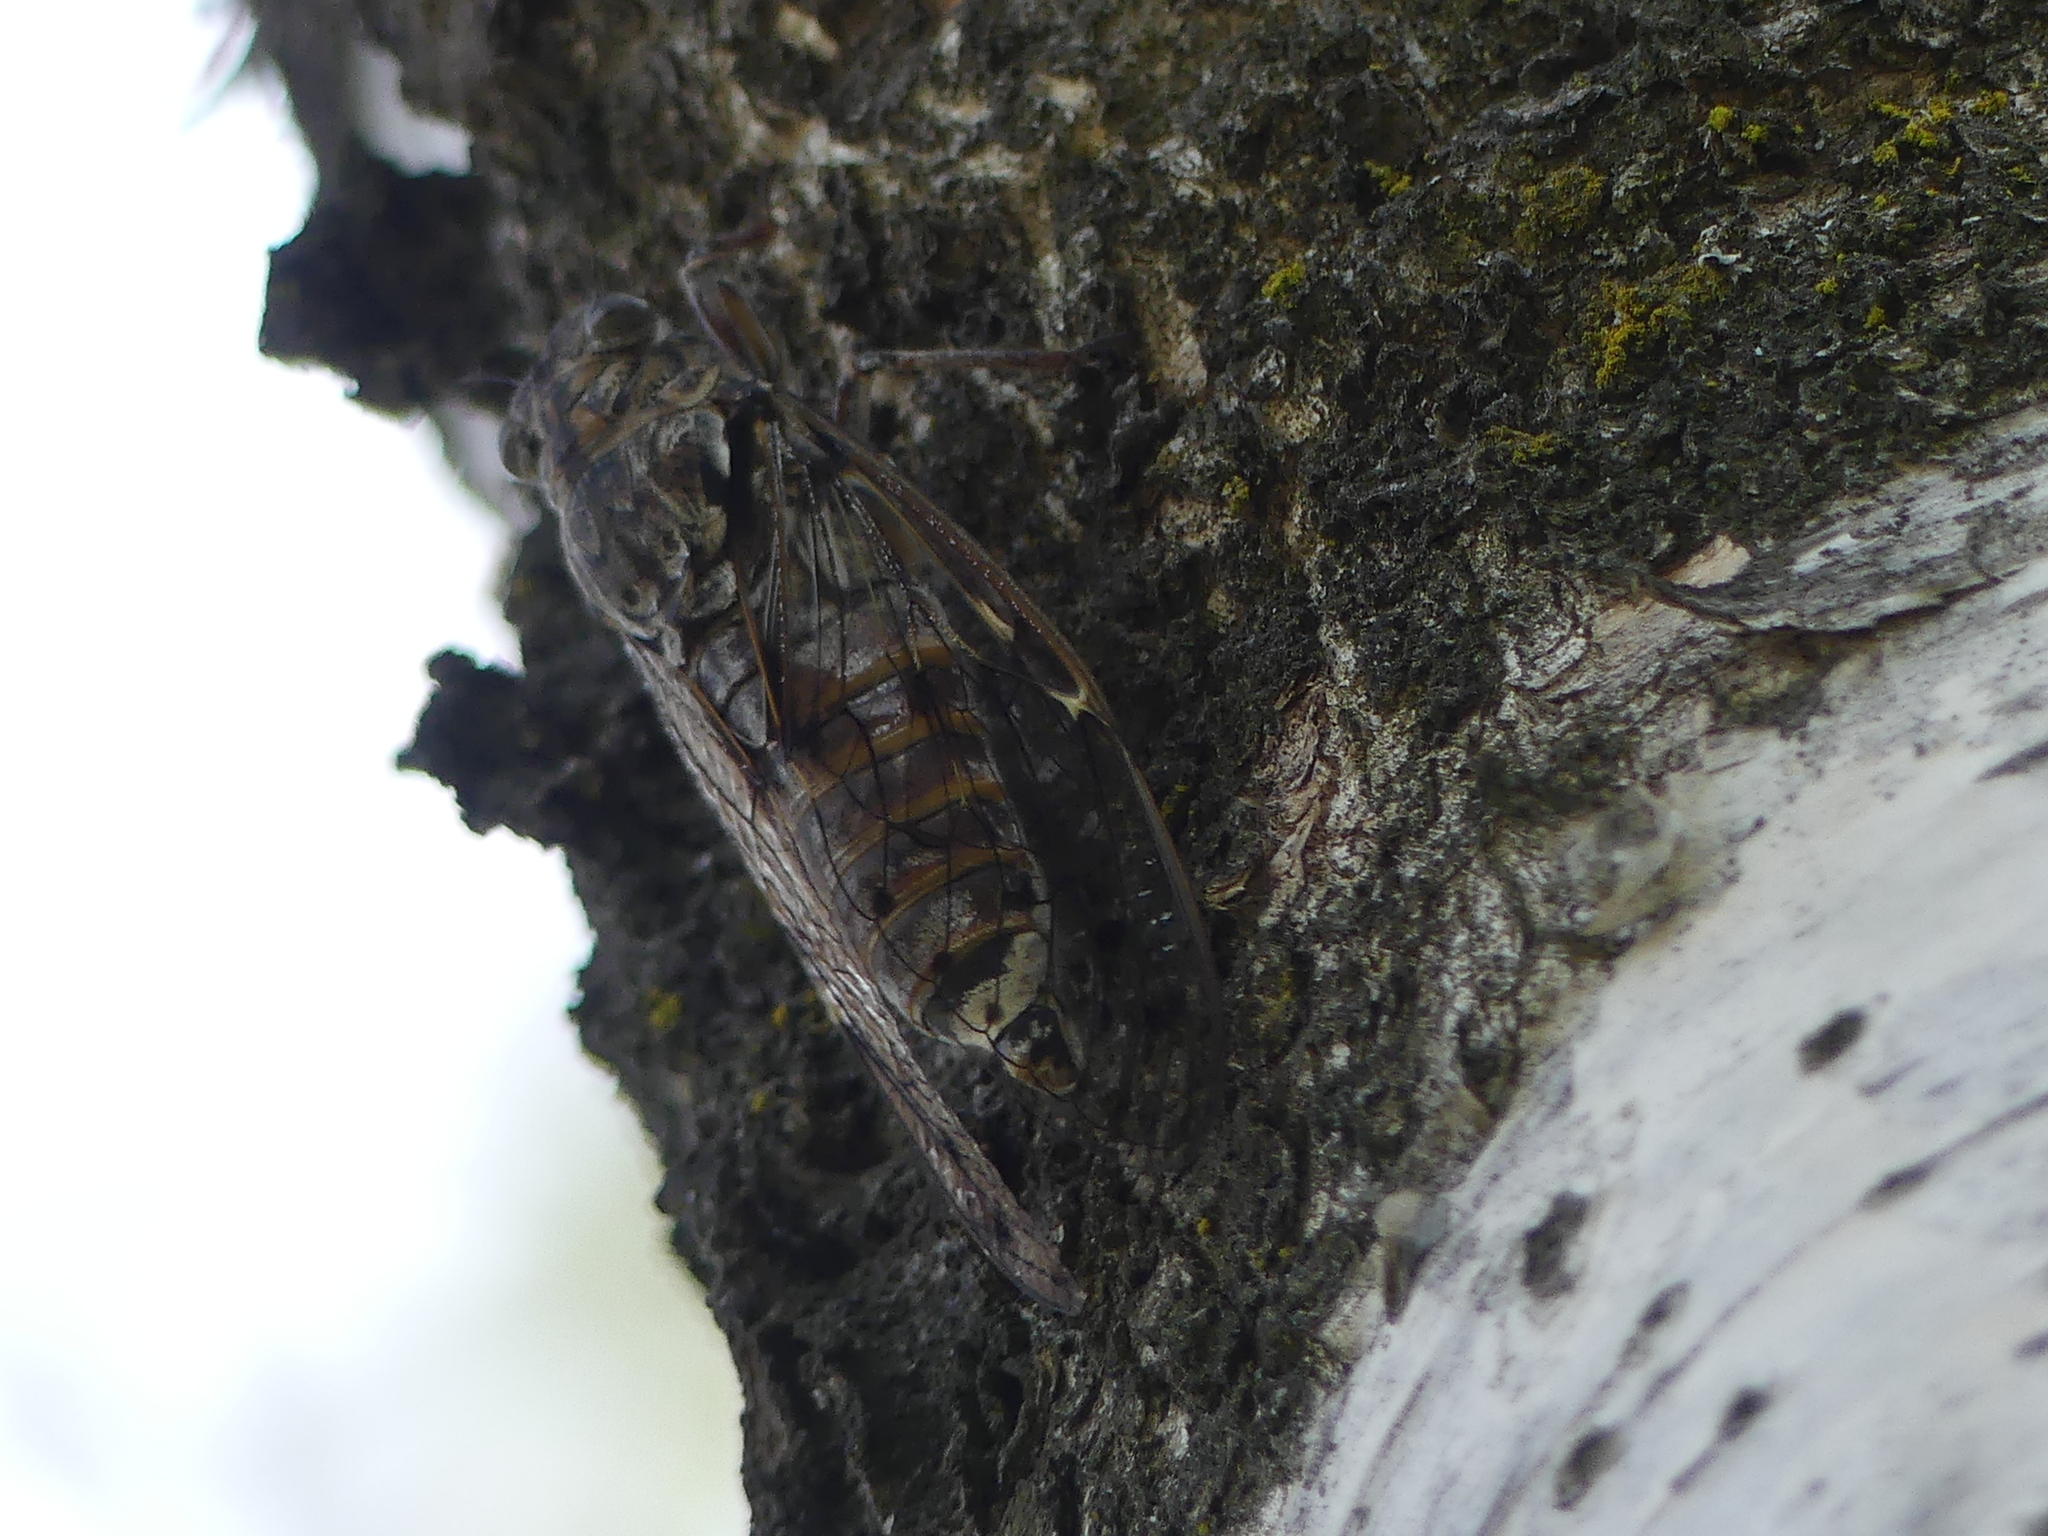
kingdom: Animalia
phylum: Arthropoda
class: Insecta
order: Hemiptera
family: Cicadidae
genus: Cicada
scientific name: Cicada orni
